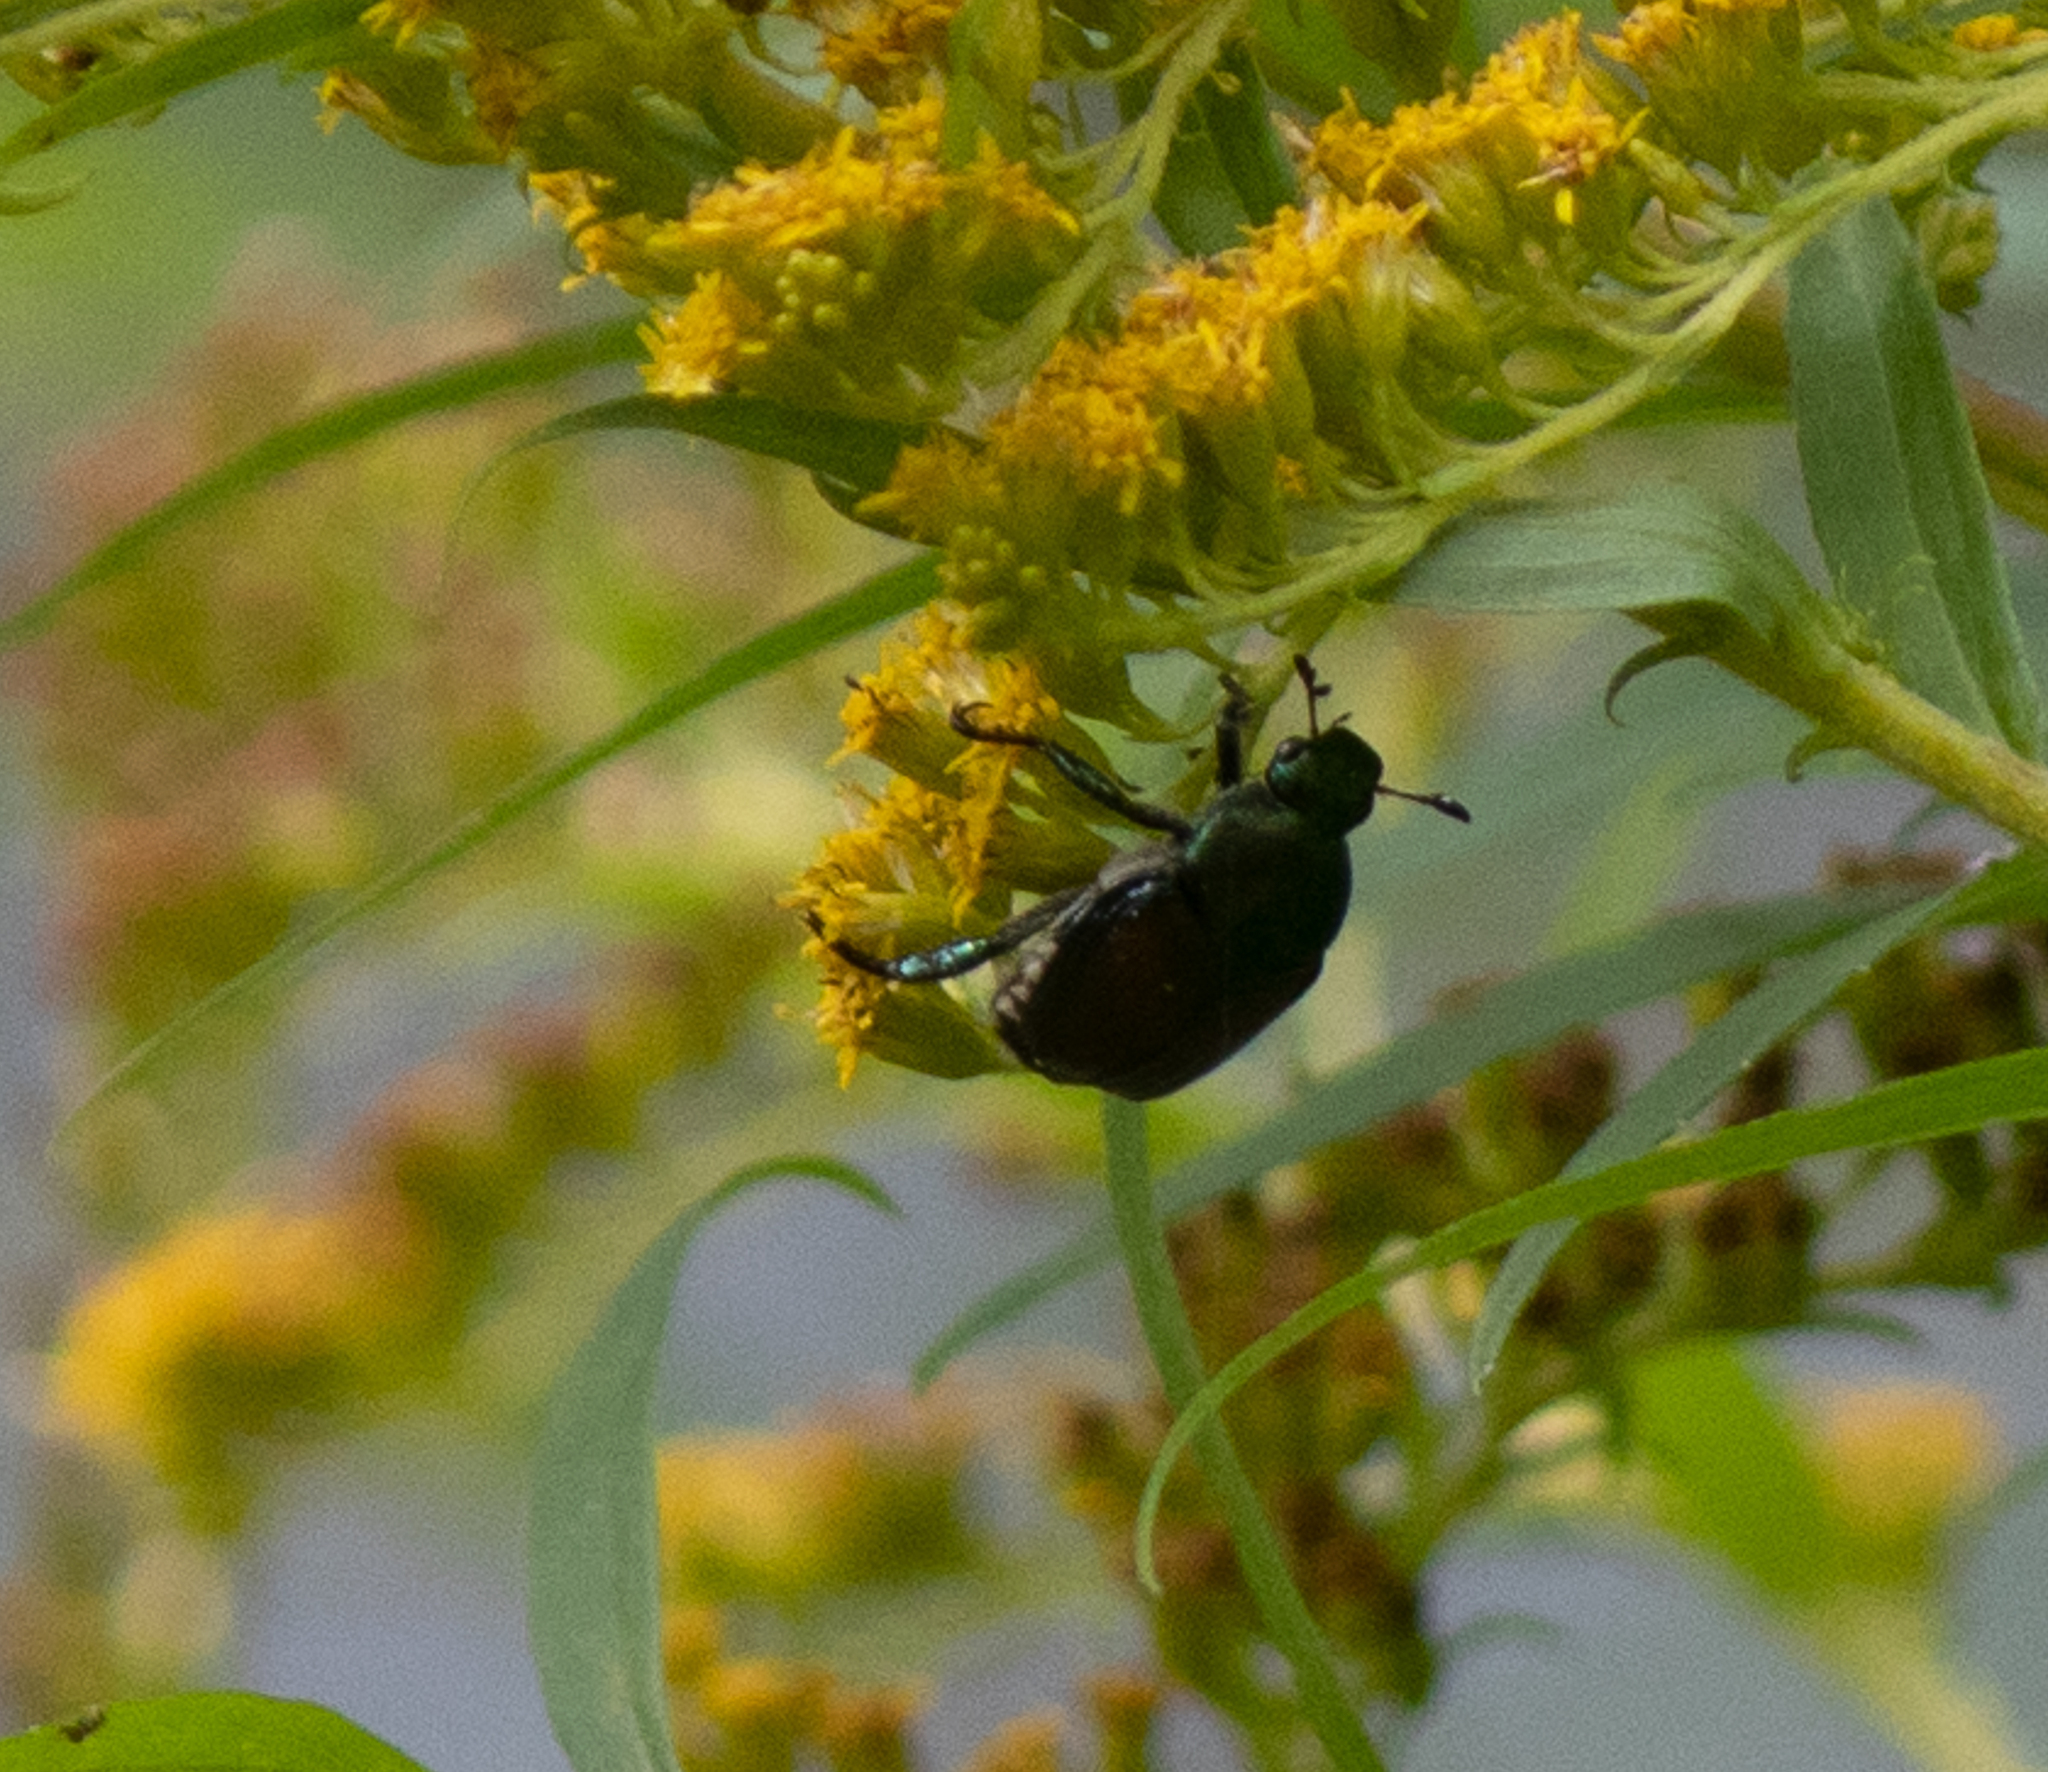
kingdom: Animalia
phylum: Arthropoda
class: Insecta
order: Coleoptera
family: Scarabaeidae
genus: Popillia
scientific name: Popillia japonica
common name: Japanese beetle
